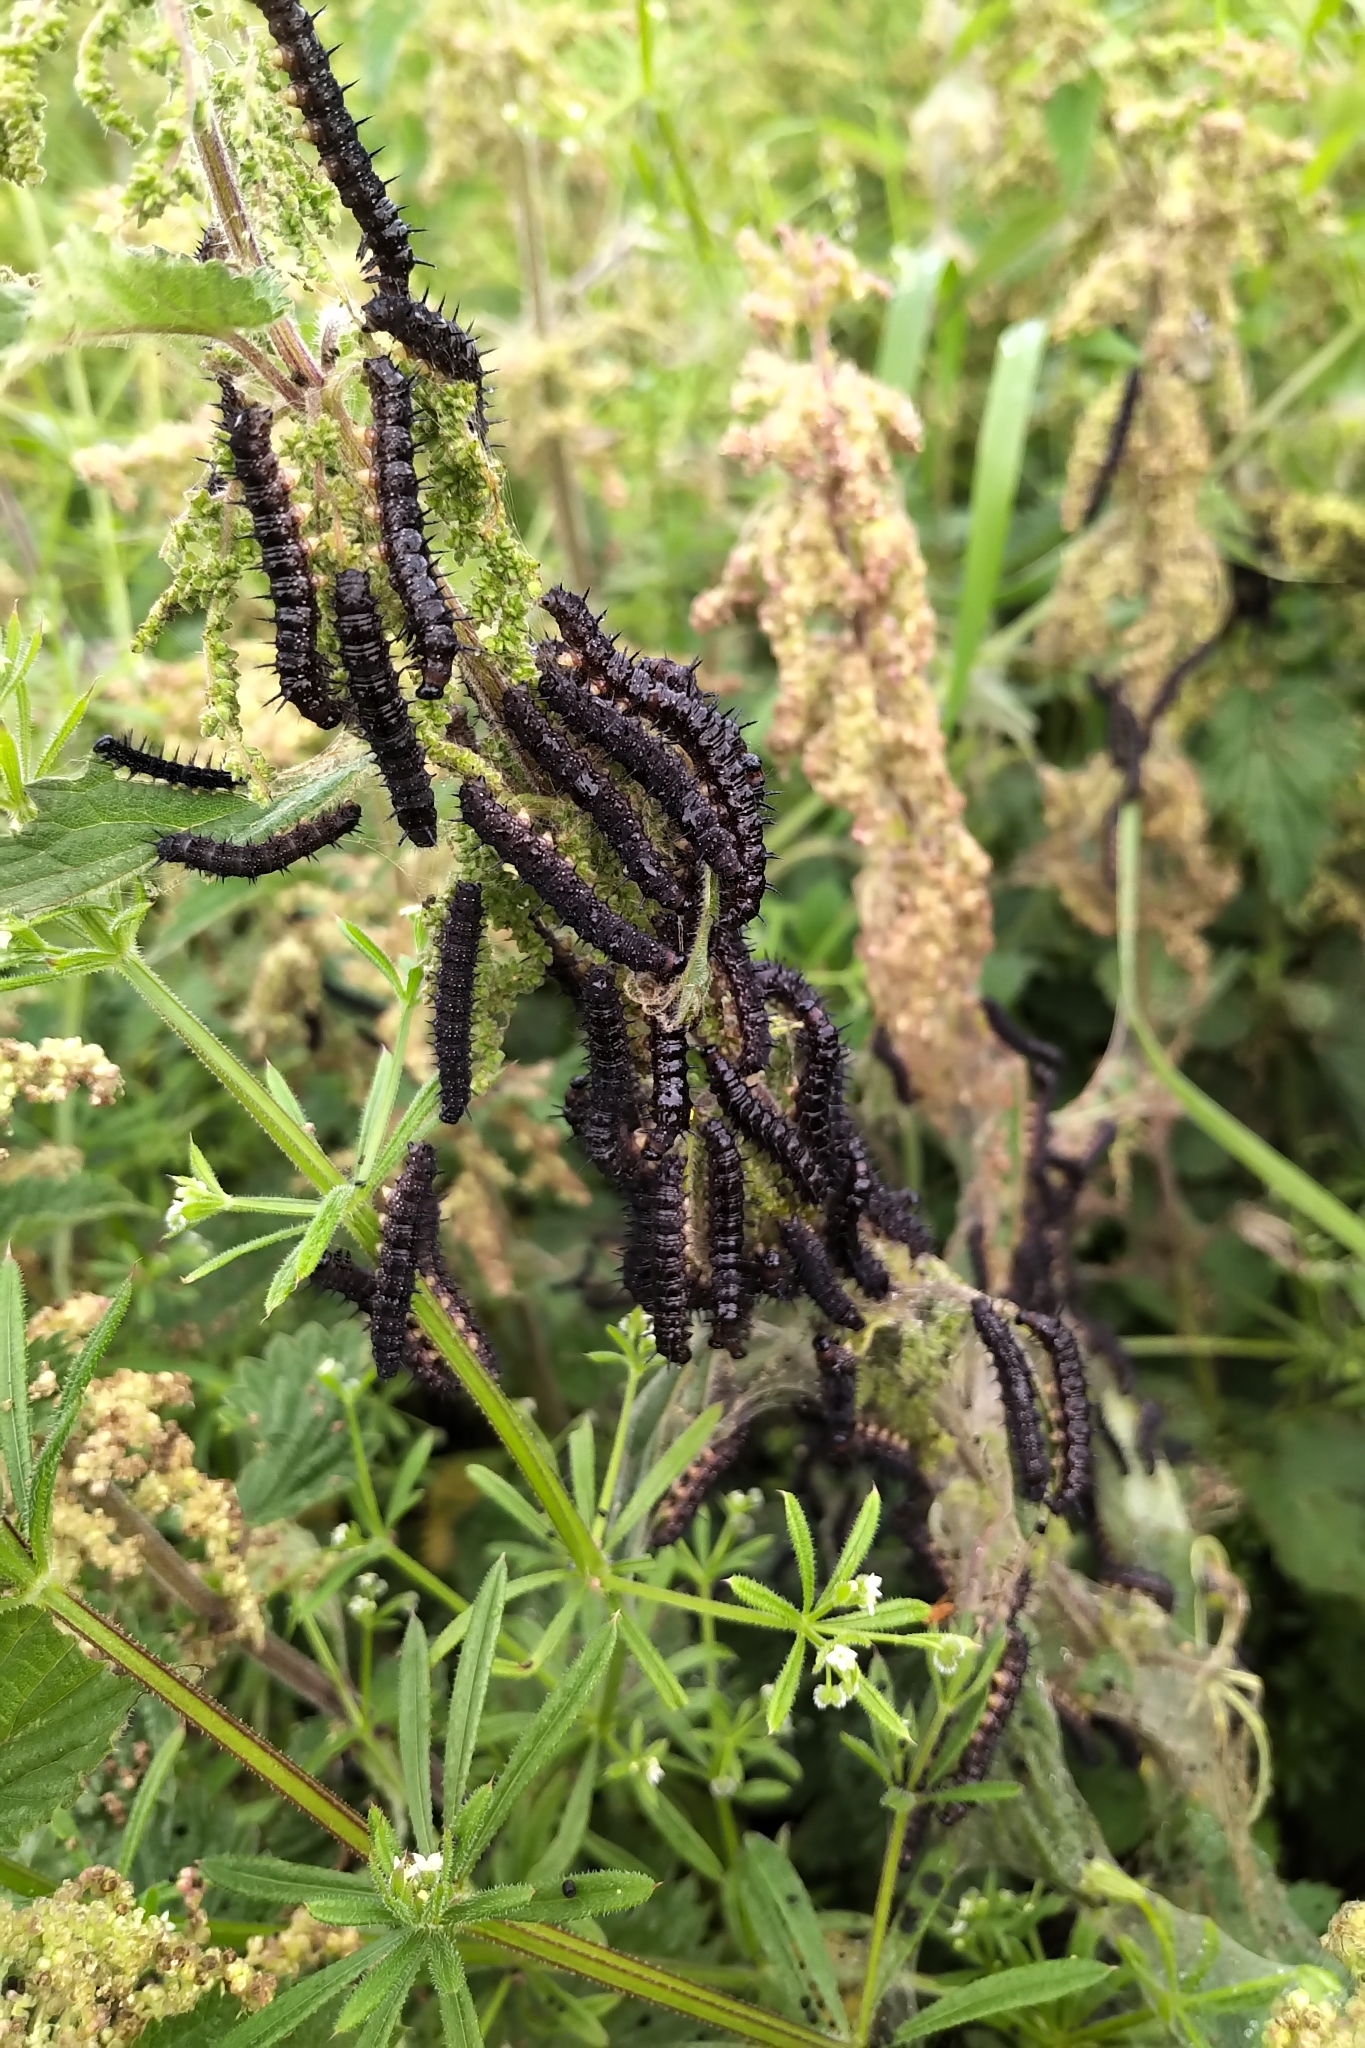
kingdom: Animalia
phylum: Arthropoda
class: Insecta
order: Lepidoptera
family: Nymphalidae
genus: Aglais
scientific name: Aglais io
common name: Peacock
